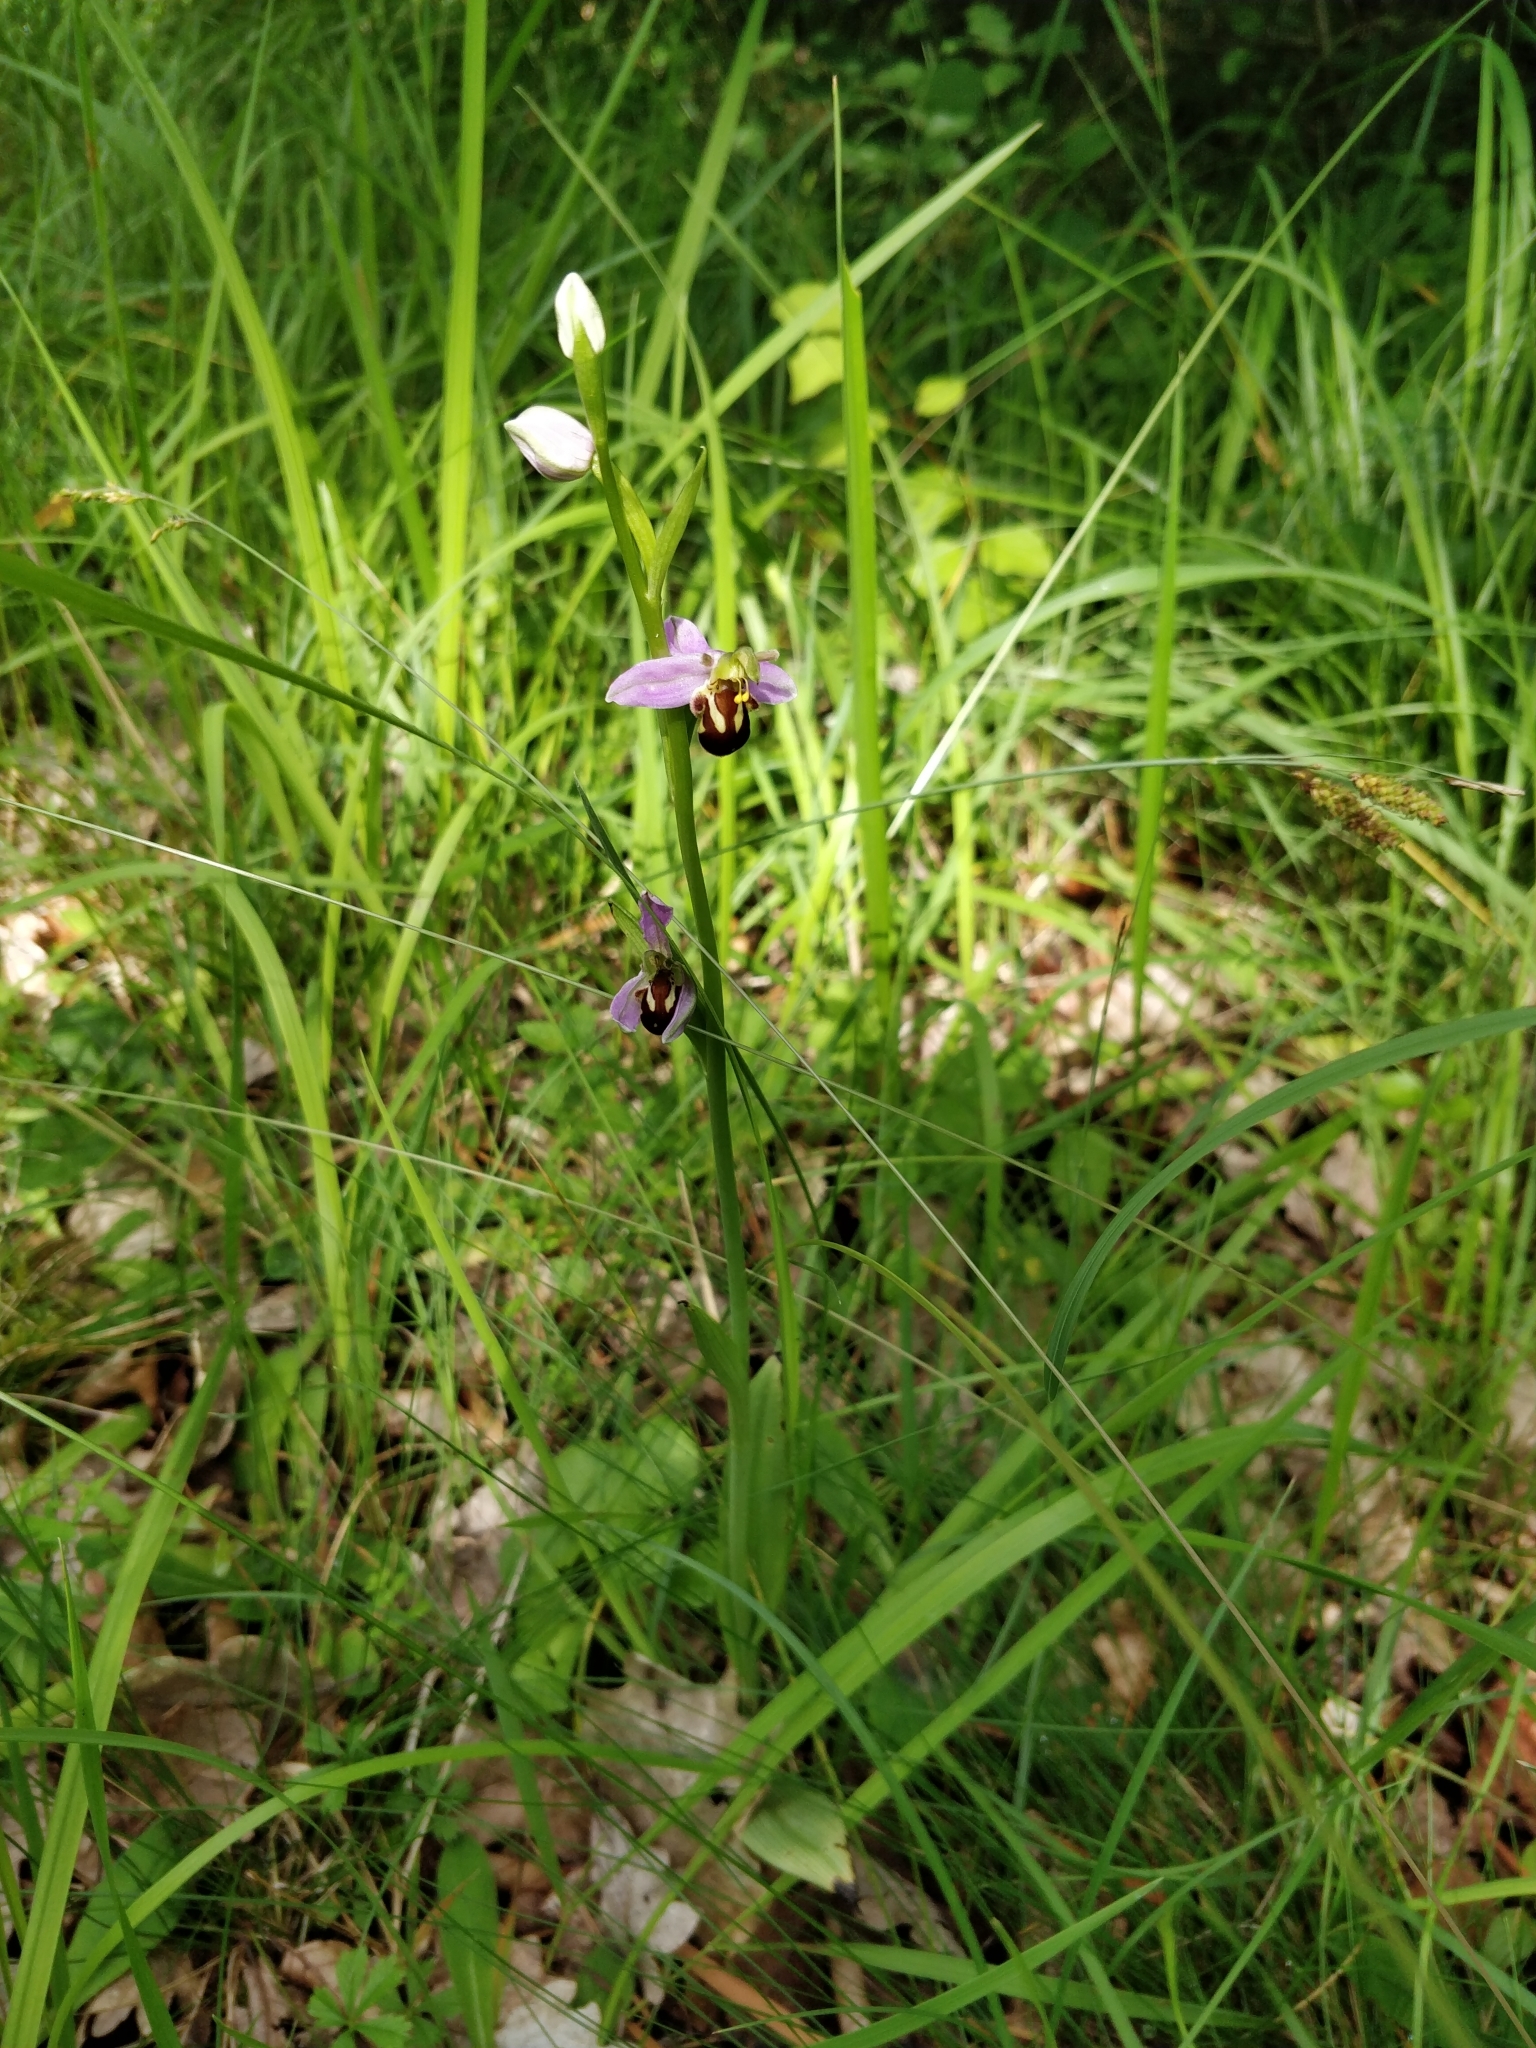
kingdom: Plantae
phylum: Tracheophyta
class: Liliopsida
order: Asparagales
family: Orchidaceae
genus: Ophrys
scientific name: Ophrys apifera
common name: Bee orchid
